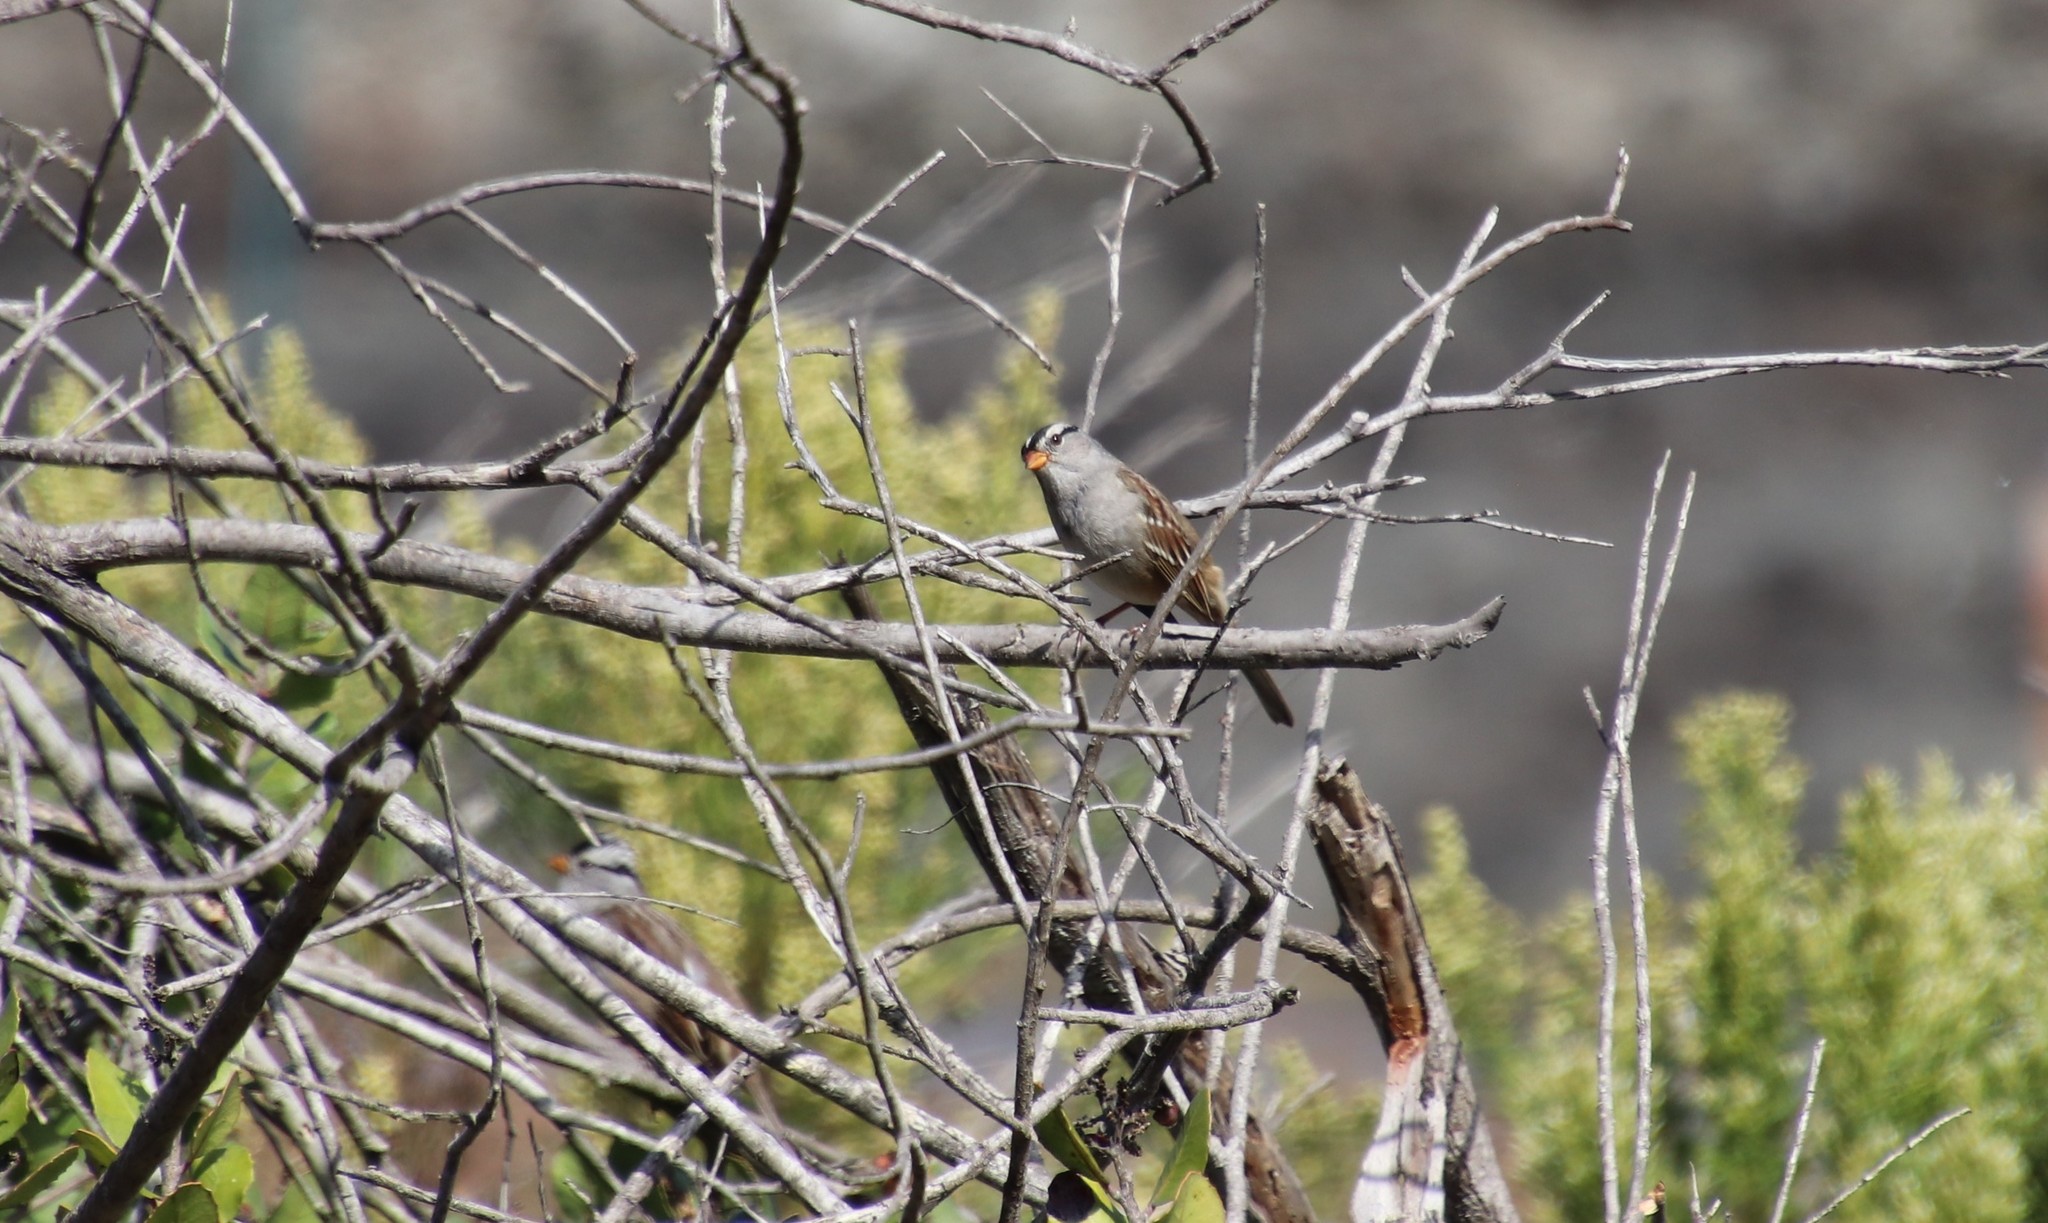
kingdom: Animalia
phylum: Chordata
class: Aves
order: Passeriformes
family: Passerellidae
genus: Zonotrichia
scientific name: Zonotrichia leucophrys
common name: White-crowned sparrow
